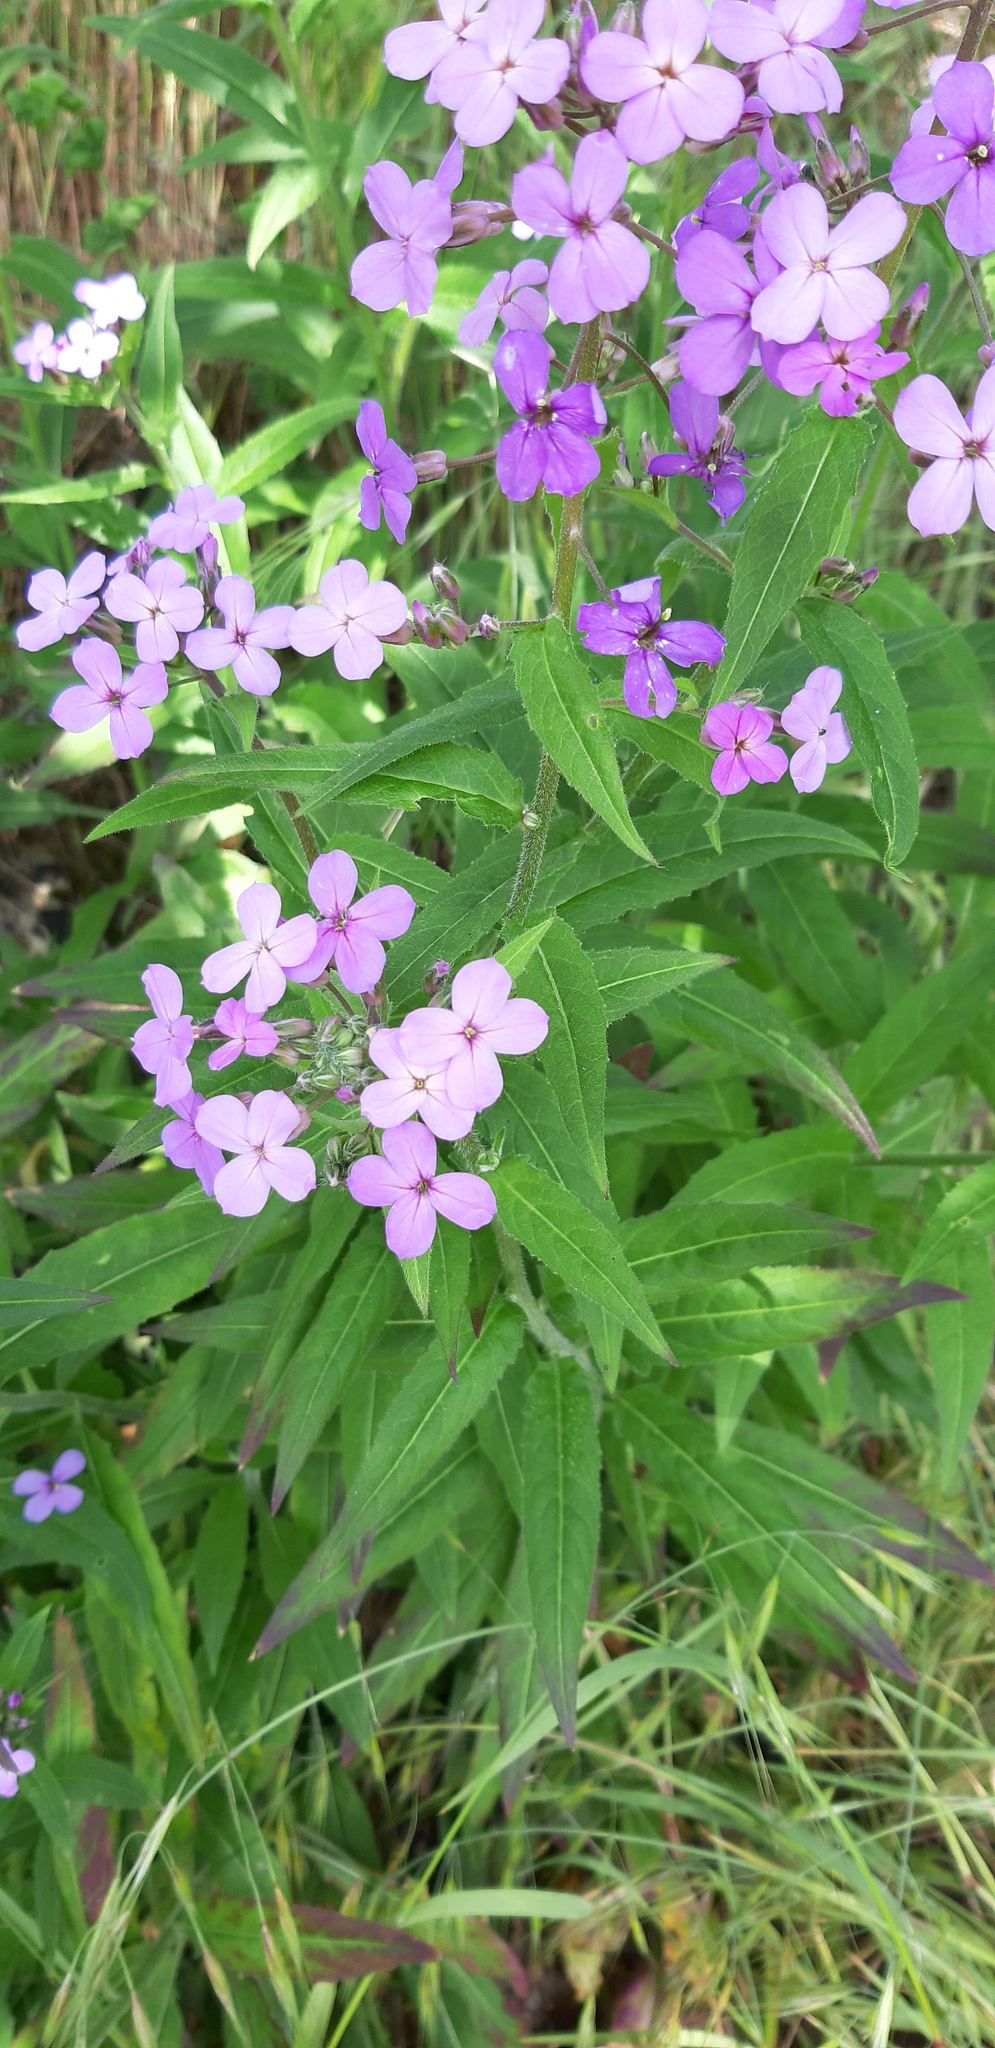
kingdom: Plantae
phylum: Tracheophyta
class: Magnoliopsida
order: Brassicales
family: Brassicaceae
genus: Hesperis
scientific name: Hesperis matronalis
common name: Dame's-violet
